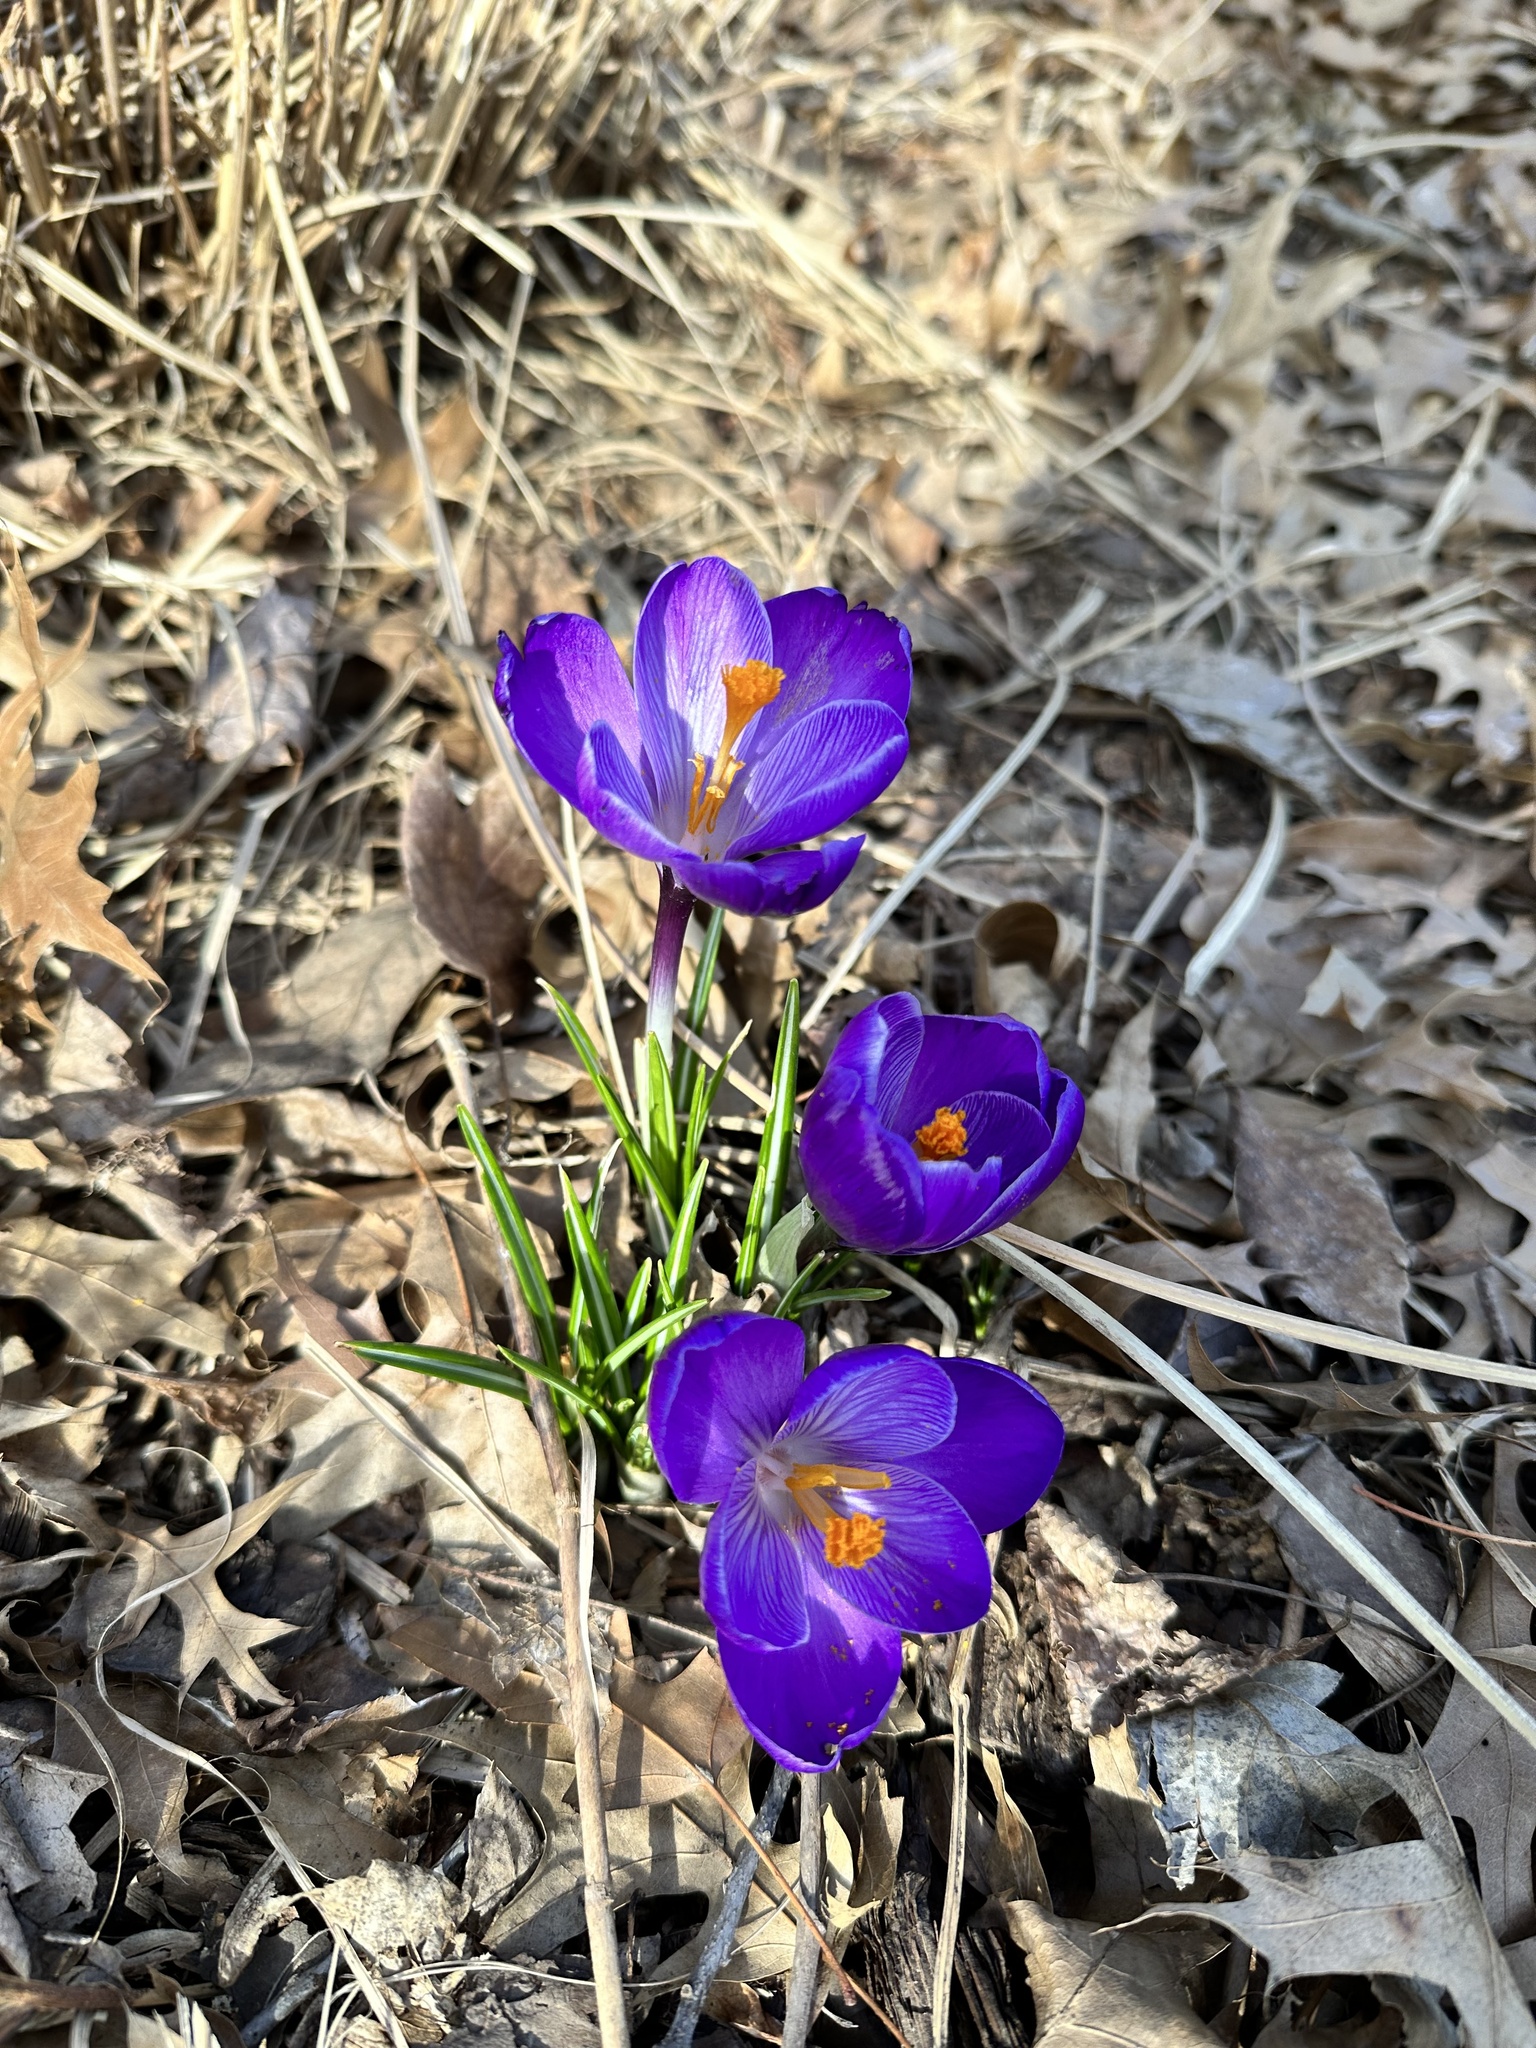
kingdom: Plantae
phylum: Tracheophyta
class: Liliopsida
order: Asparagales
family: Iridaceae
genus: Crocus
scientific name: Crocus tommasinianus
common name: Early crocus
